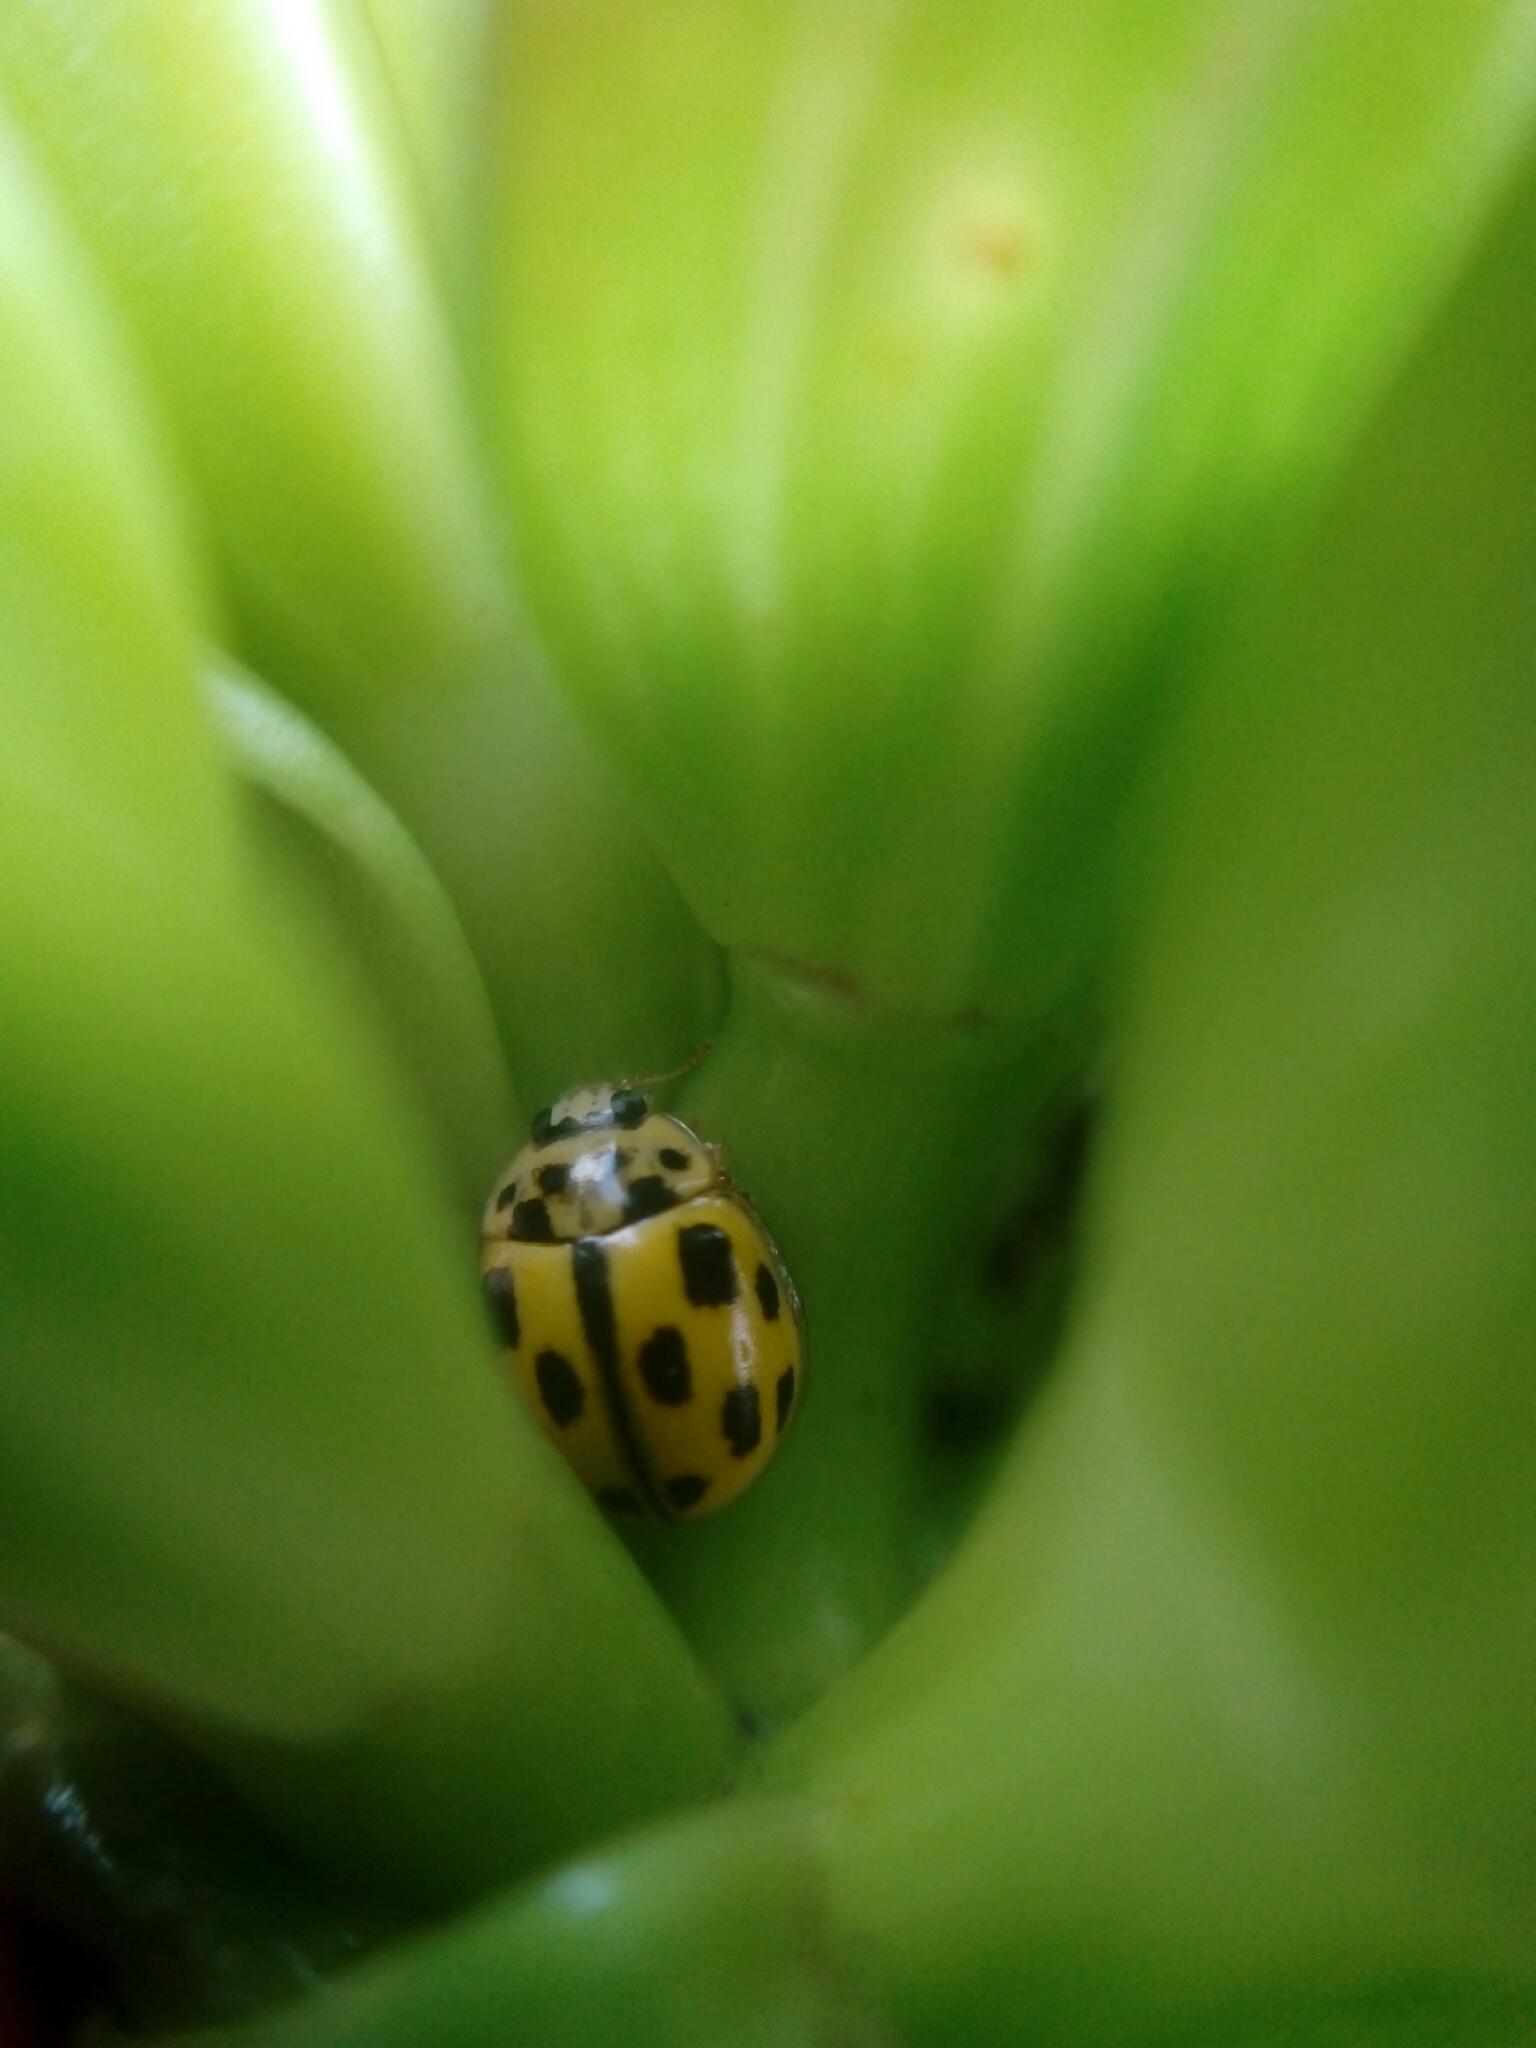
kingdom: Animalia
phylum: Arthropoda
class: Insecta
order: Coleoptera
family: Coccinellidae
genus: Propylaea
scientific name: Propylaea quatuordecimpunctata
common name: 14-spotted ladybird beetle
